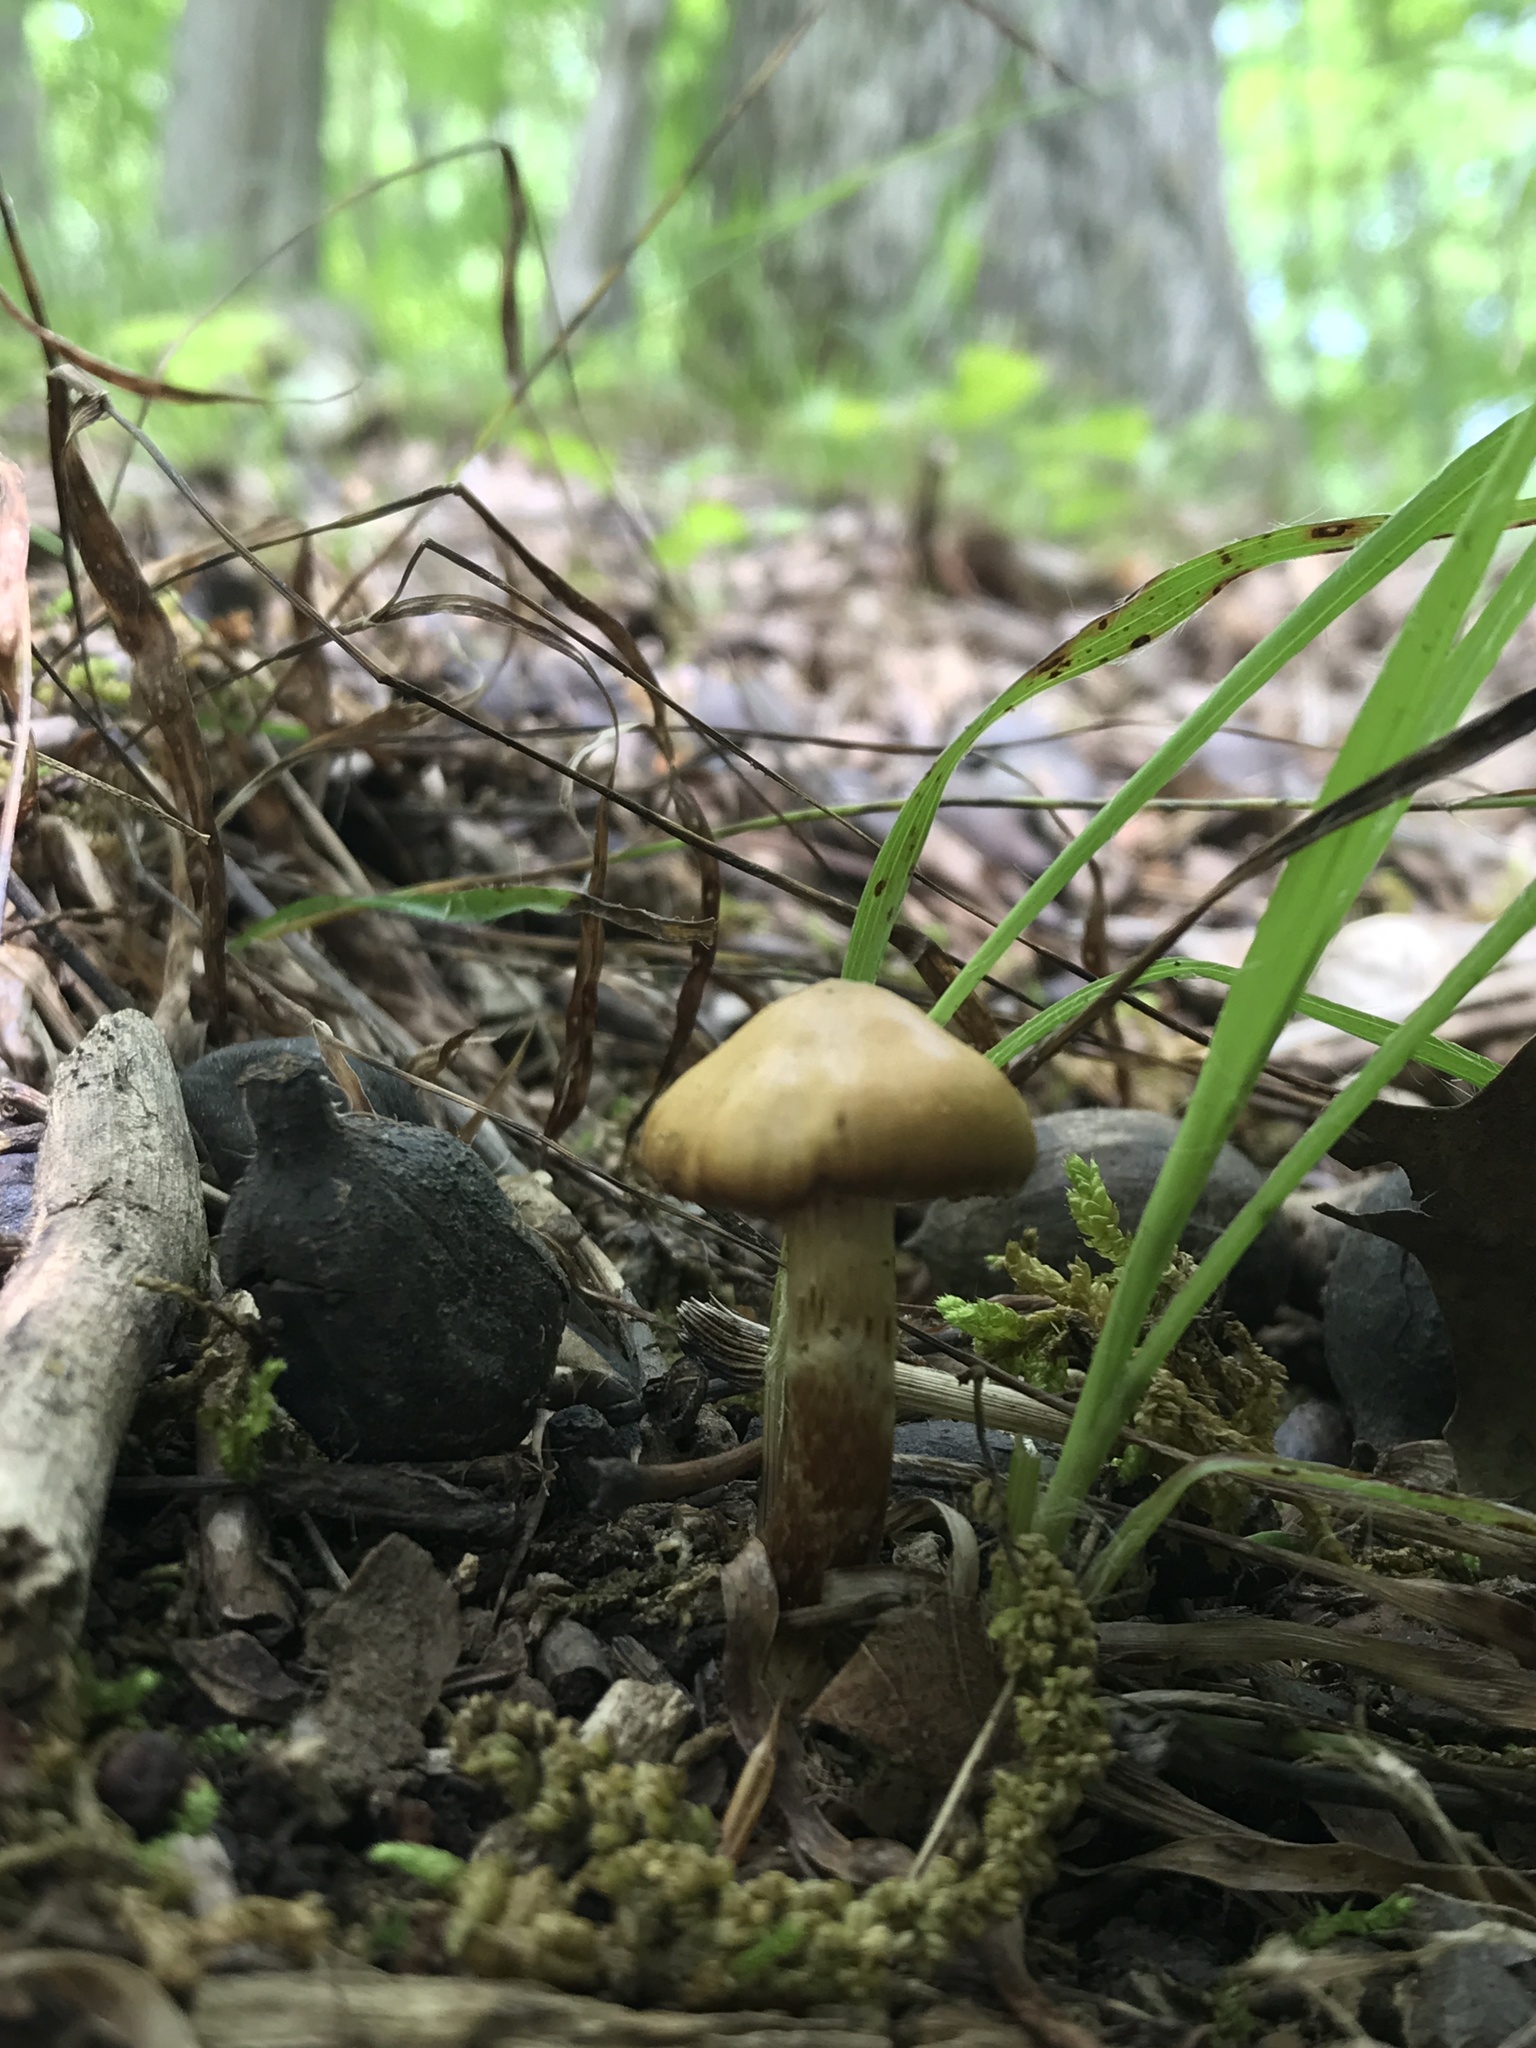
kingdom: Fungi
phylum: Basidiomycota
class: Agaricomycetes
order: Agaricales
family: Cortinariaceae
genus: Cortinarius
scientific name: Cortinarius
